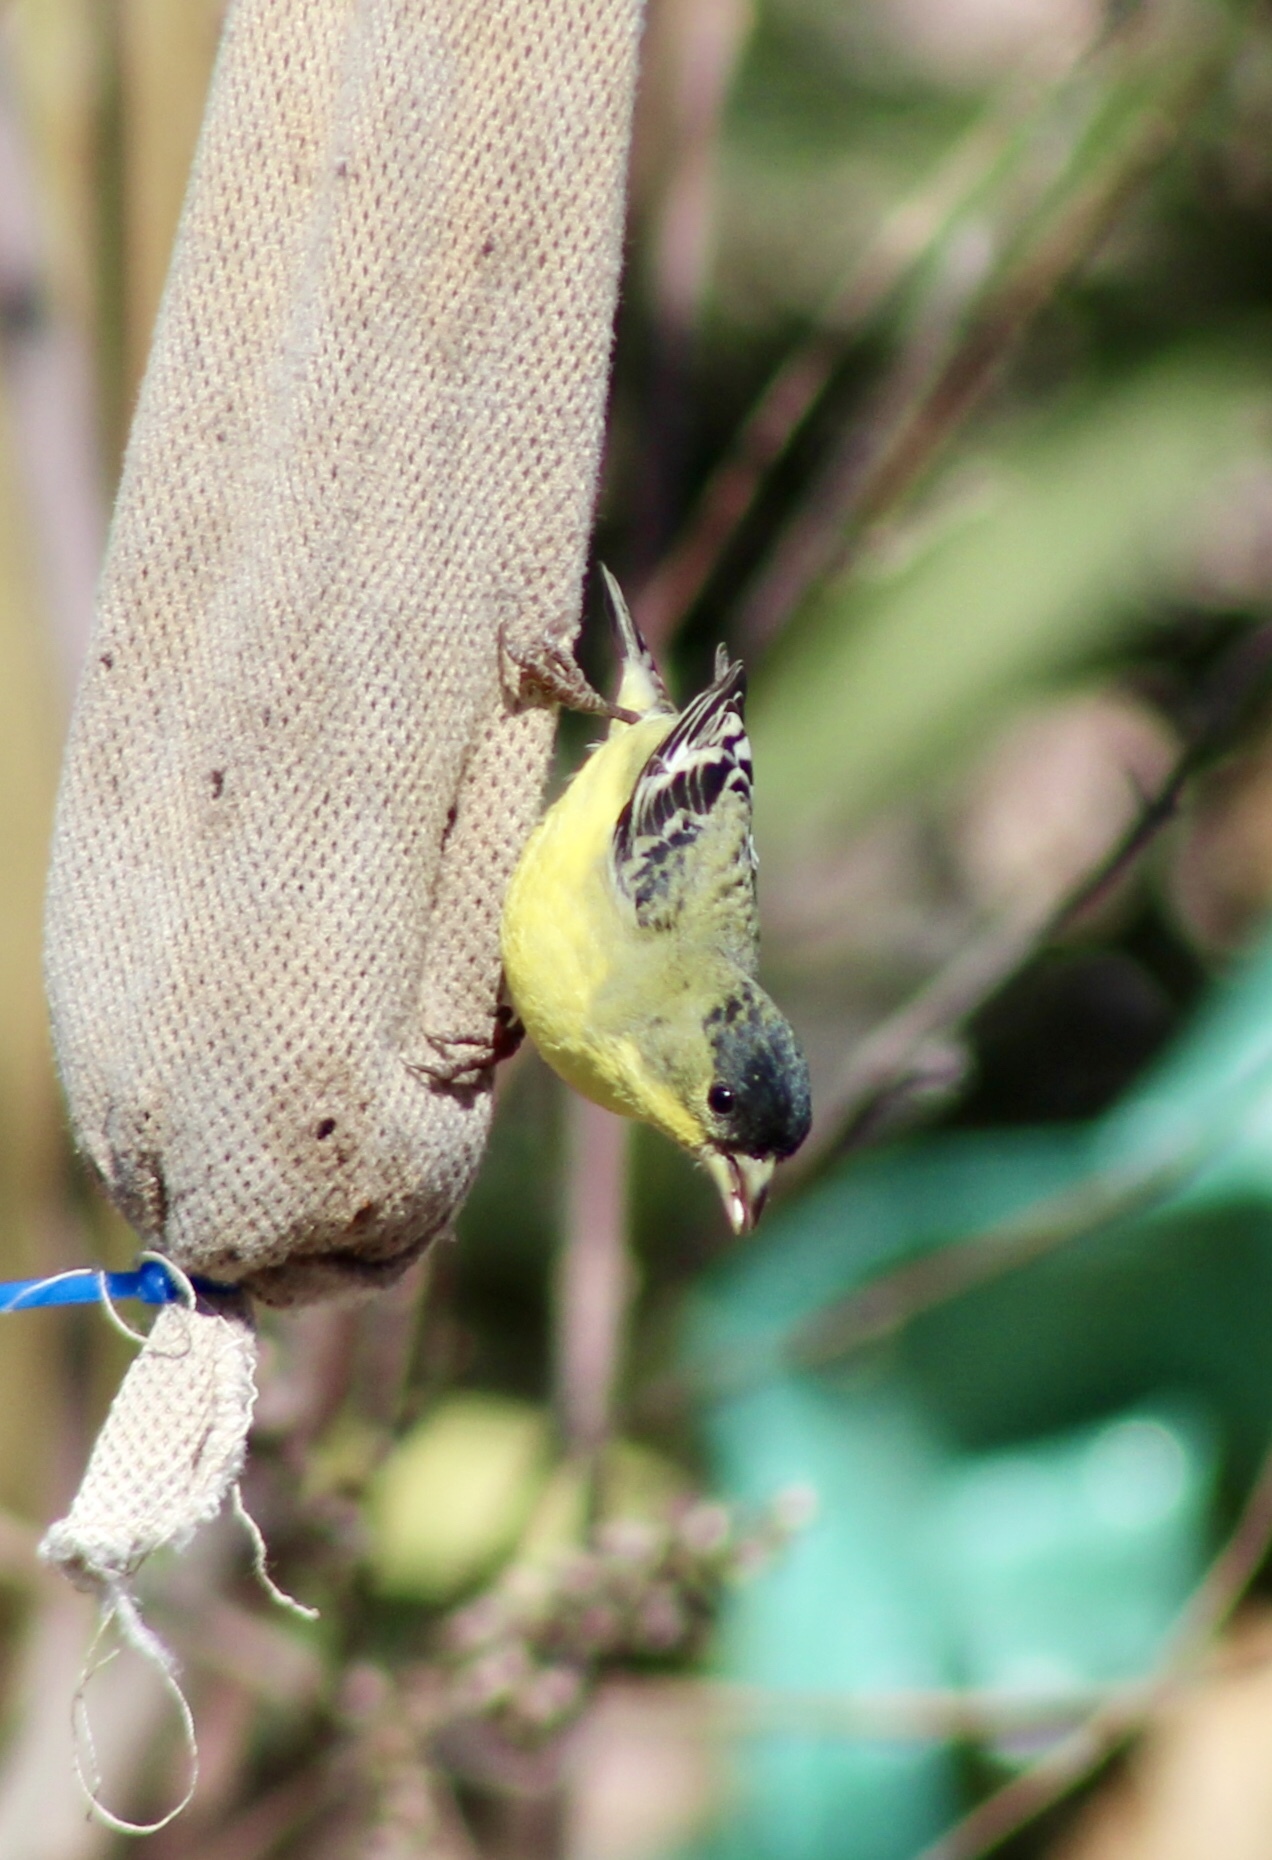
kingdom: Animalia
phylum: Chordata
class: Aves
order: Passeriformes
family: Fringillidae
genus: Spinus
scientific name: Spinus psaltria
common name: Lesser goldfinch
